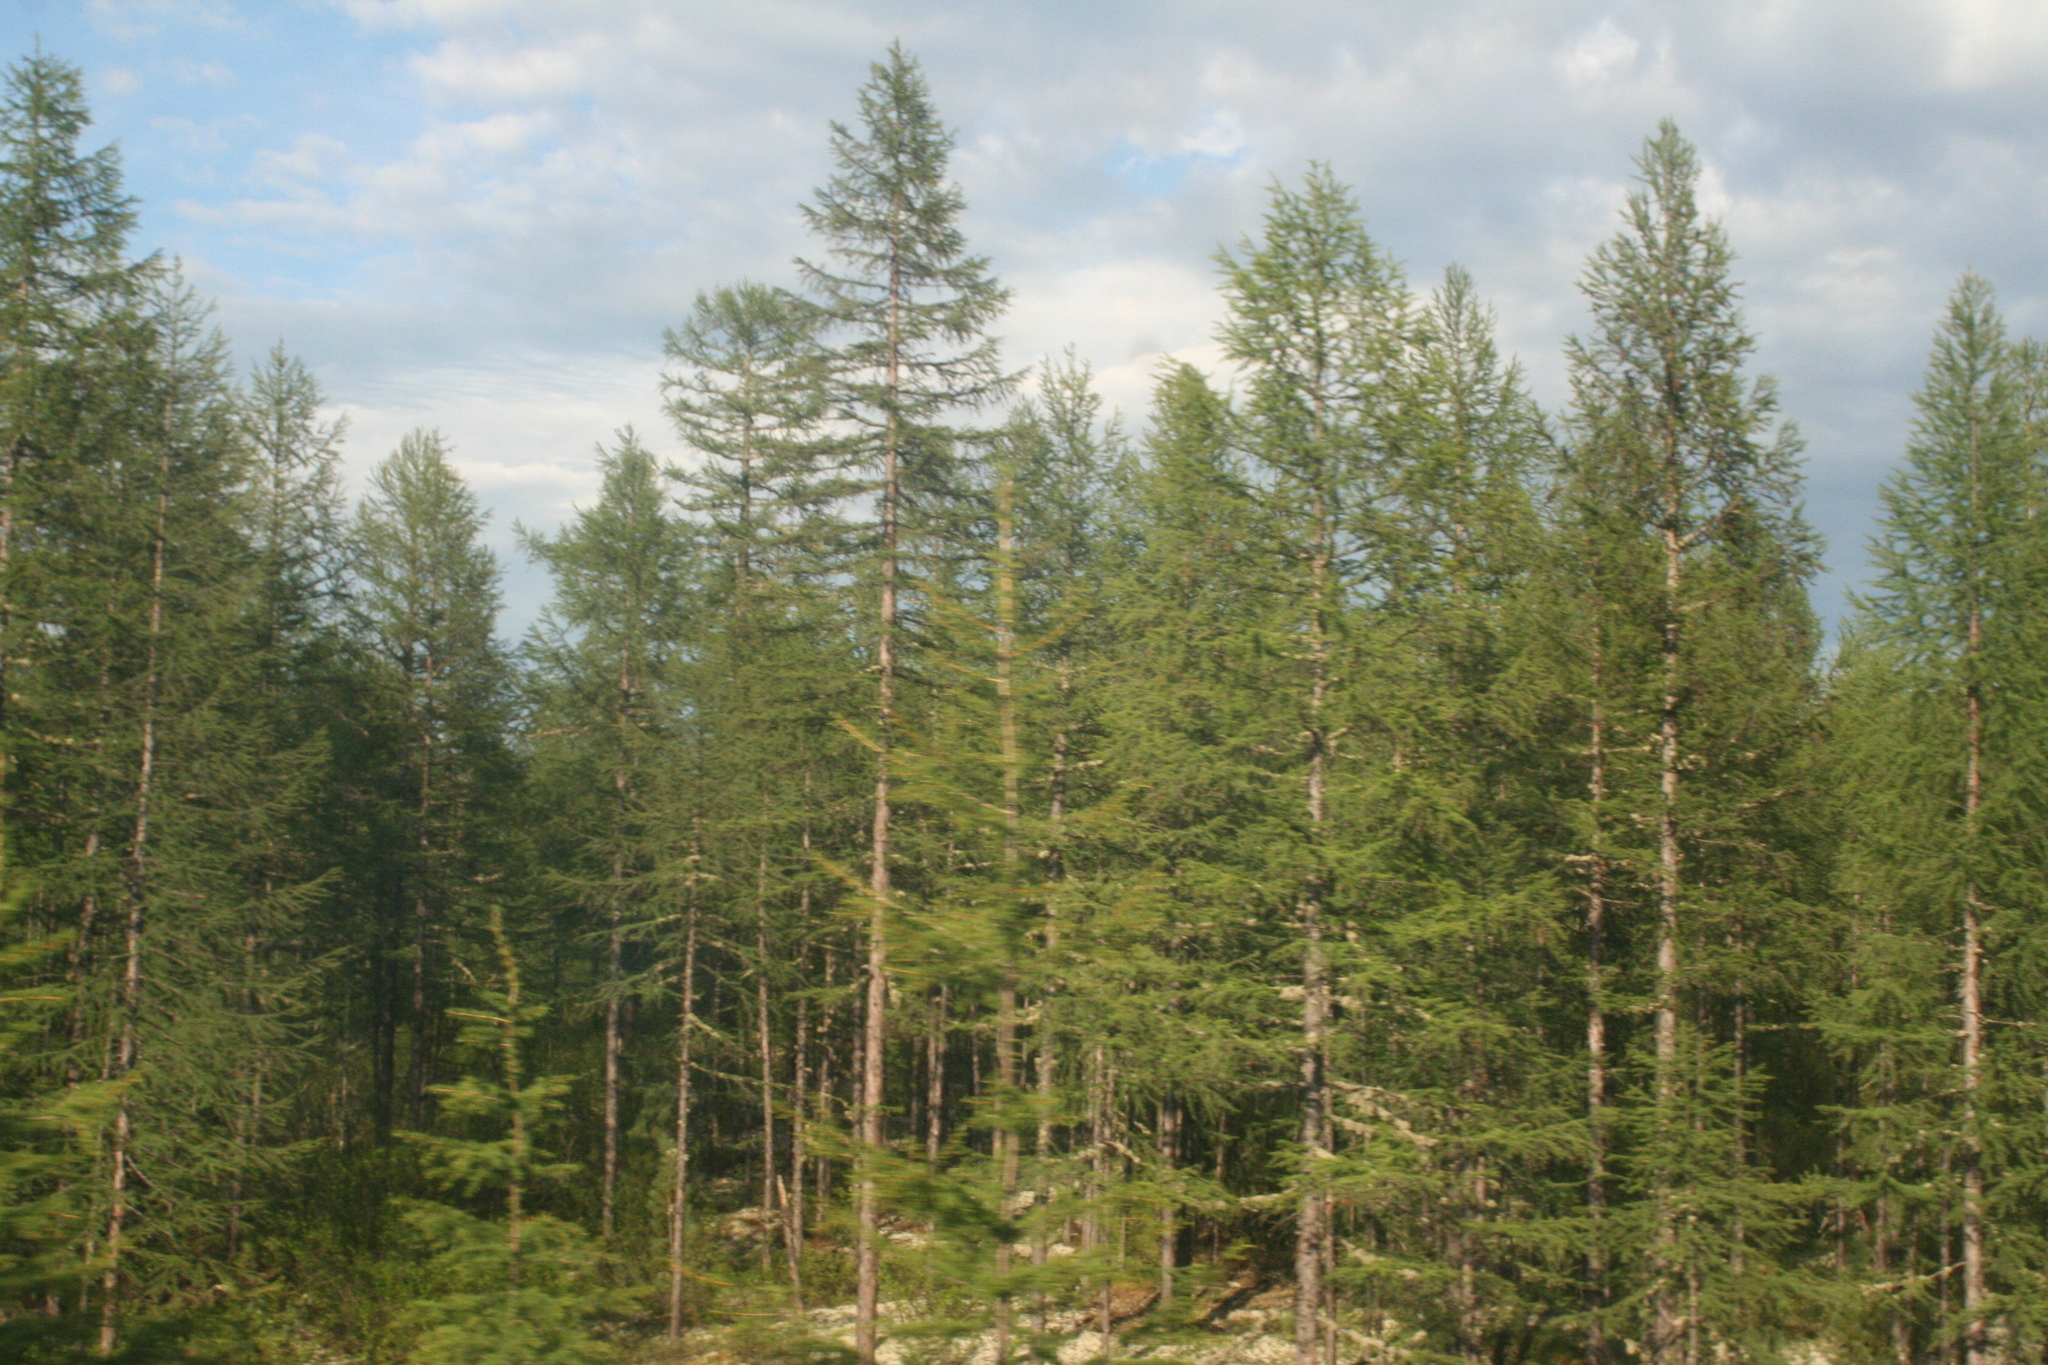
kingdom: Plantae
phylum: Tracheophyta
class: Pinopsida
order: Pinales
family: Pinaceae
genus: Larix
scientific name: Larix gmelinii
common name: Dahurian larch
